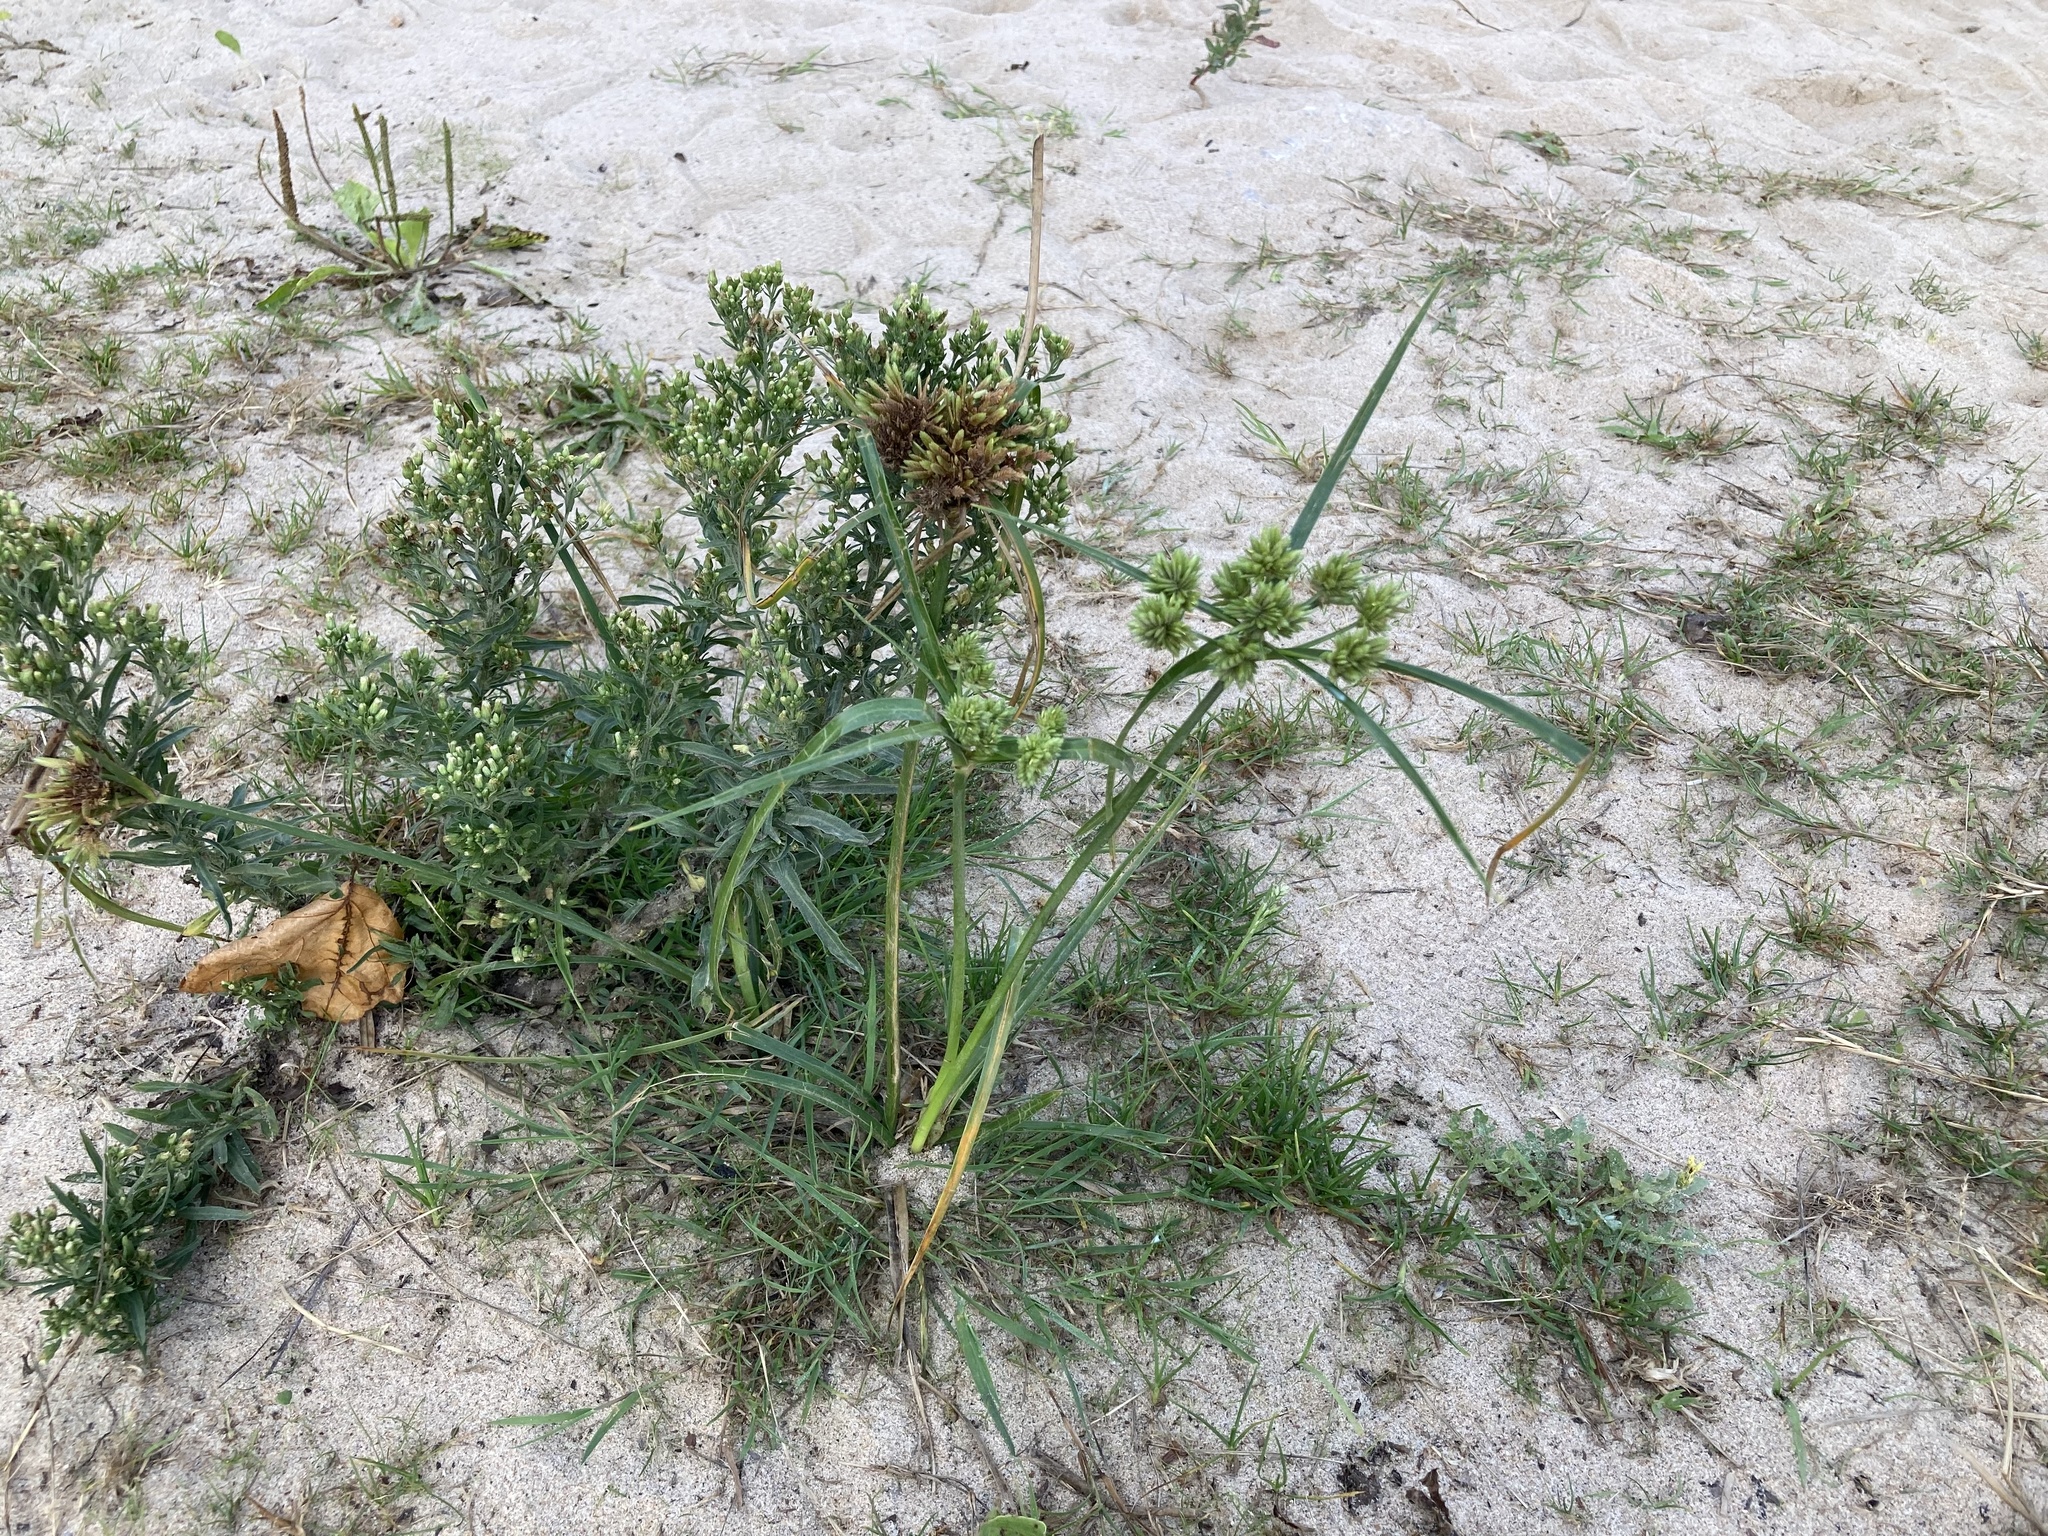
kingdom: Plantae
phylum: Tracheophyta
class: Liliopsida
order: Poales
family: Cyperaceae
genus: Cyperus
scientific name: Cyperus eragrostis
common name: Tall flatsedge
